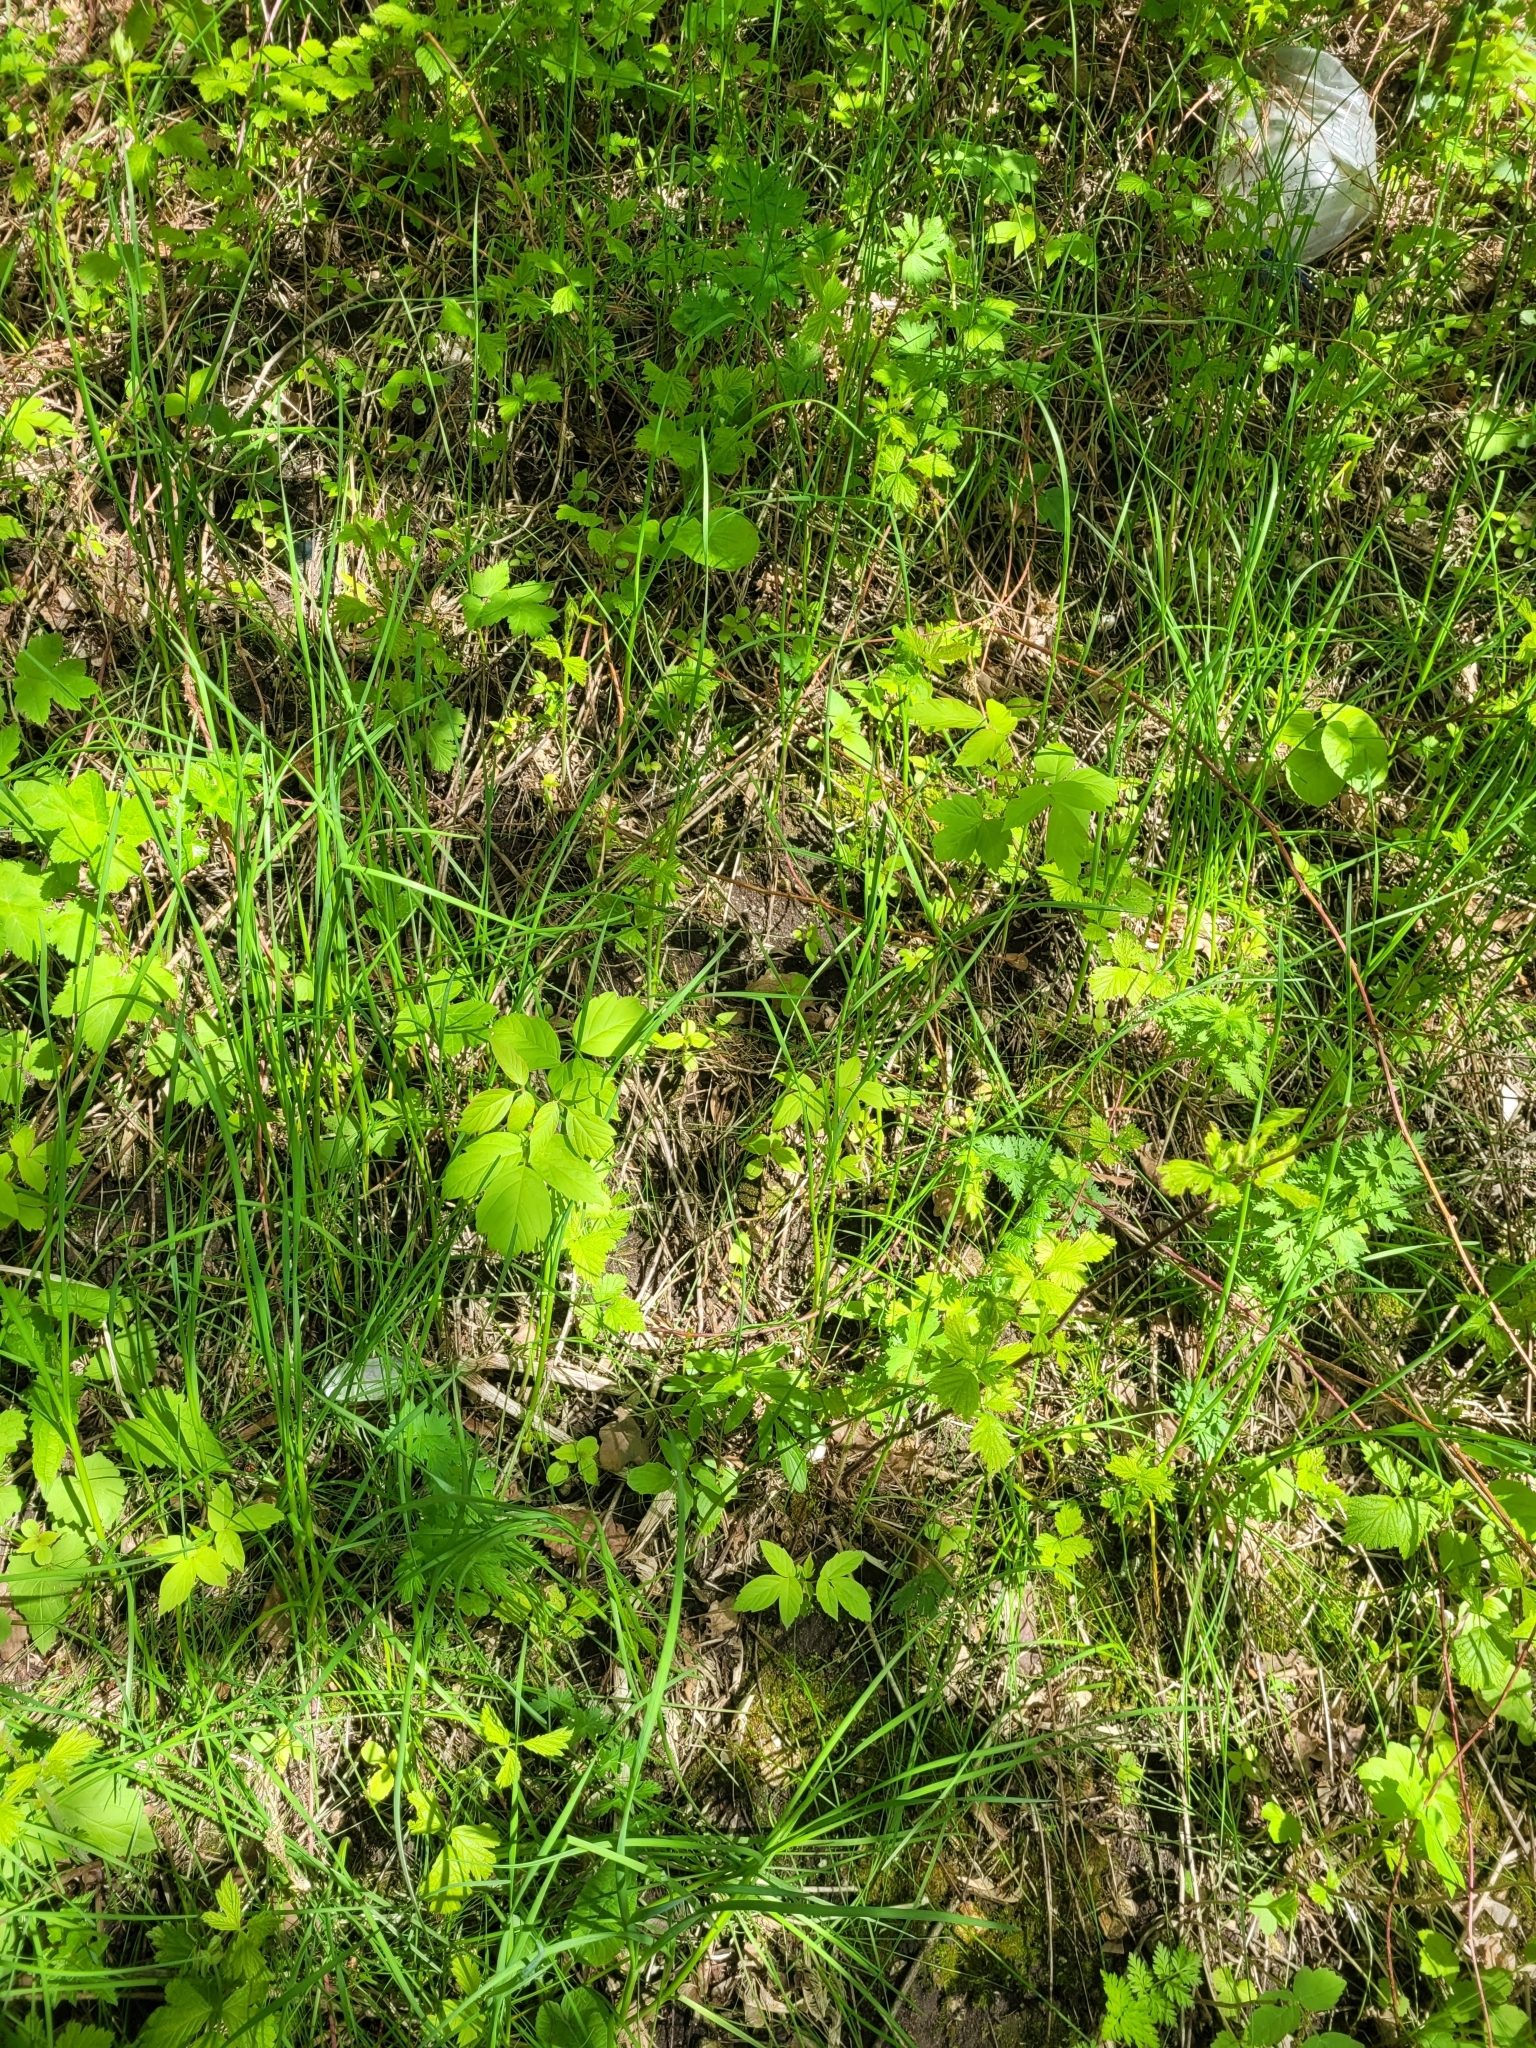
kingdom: Plantae
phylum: Tracheophyta
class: Liliopsida
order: Asparagales
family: Amaryllidaceae
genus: Allium
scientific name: Allium oleraceum
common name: Field garlic
